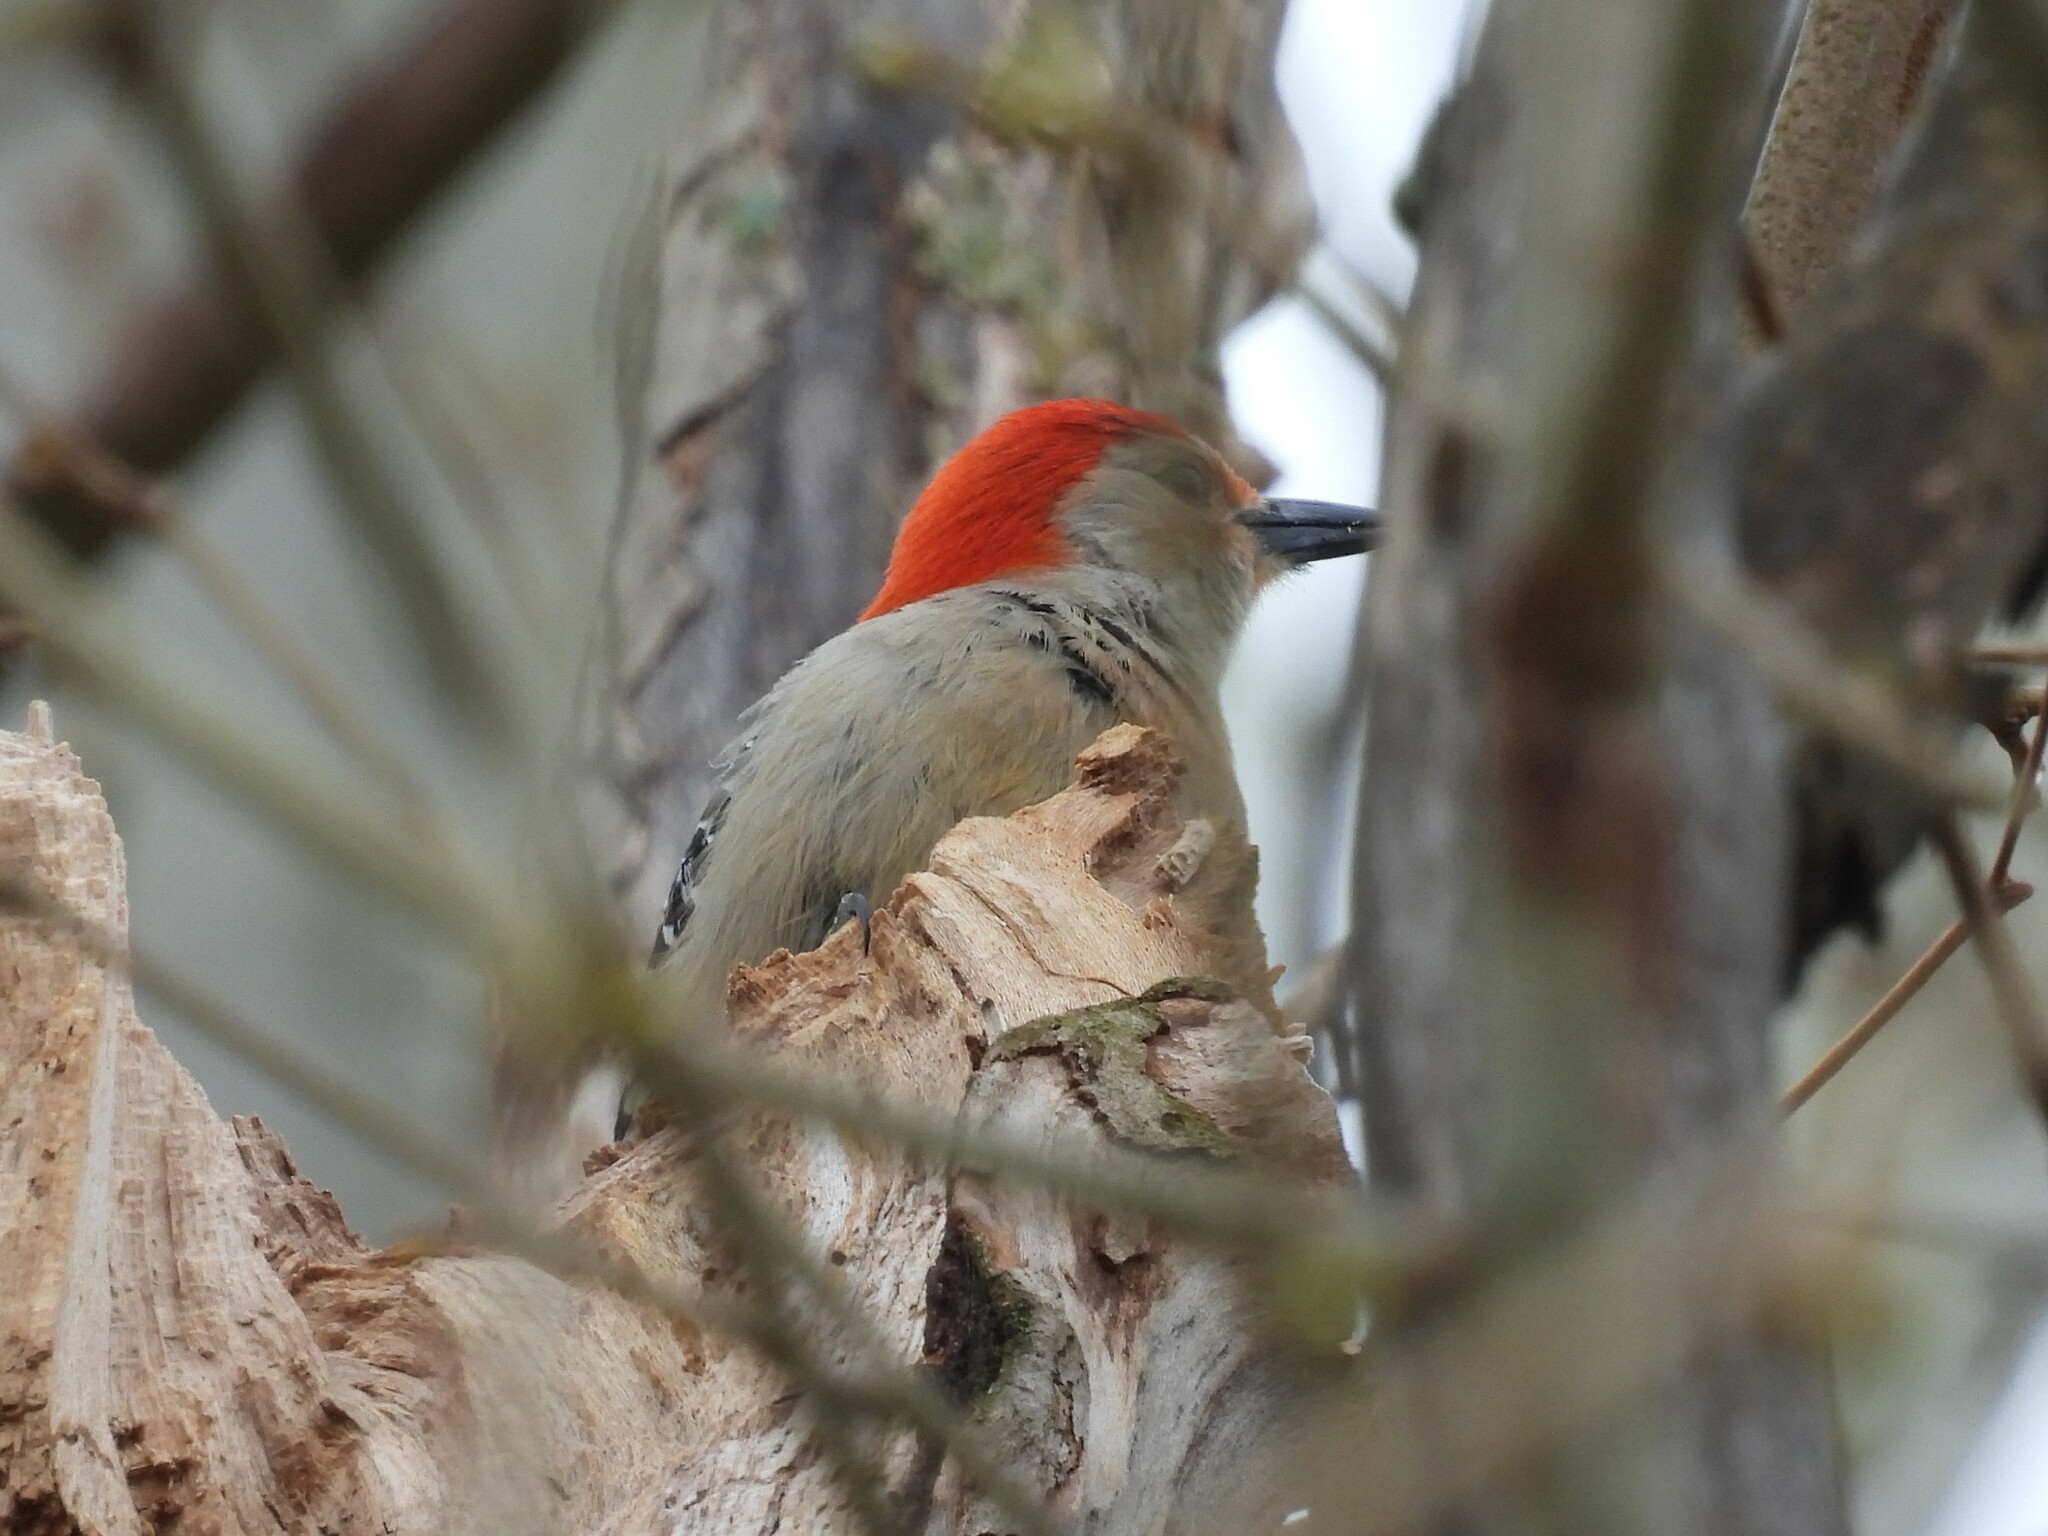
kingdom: Animalia
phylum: Chordata
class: Aves
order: Piciformes
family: Picidae
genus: Melanerpes
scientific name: Melanerpes carolinus
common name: Red-bellied woodpecker
